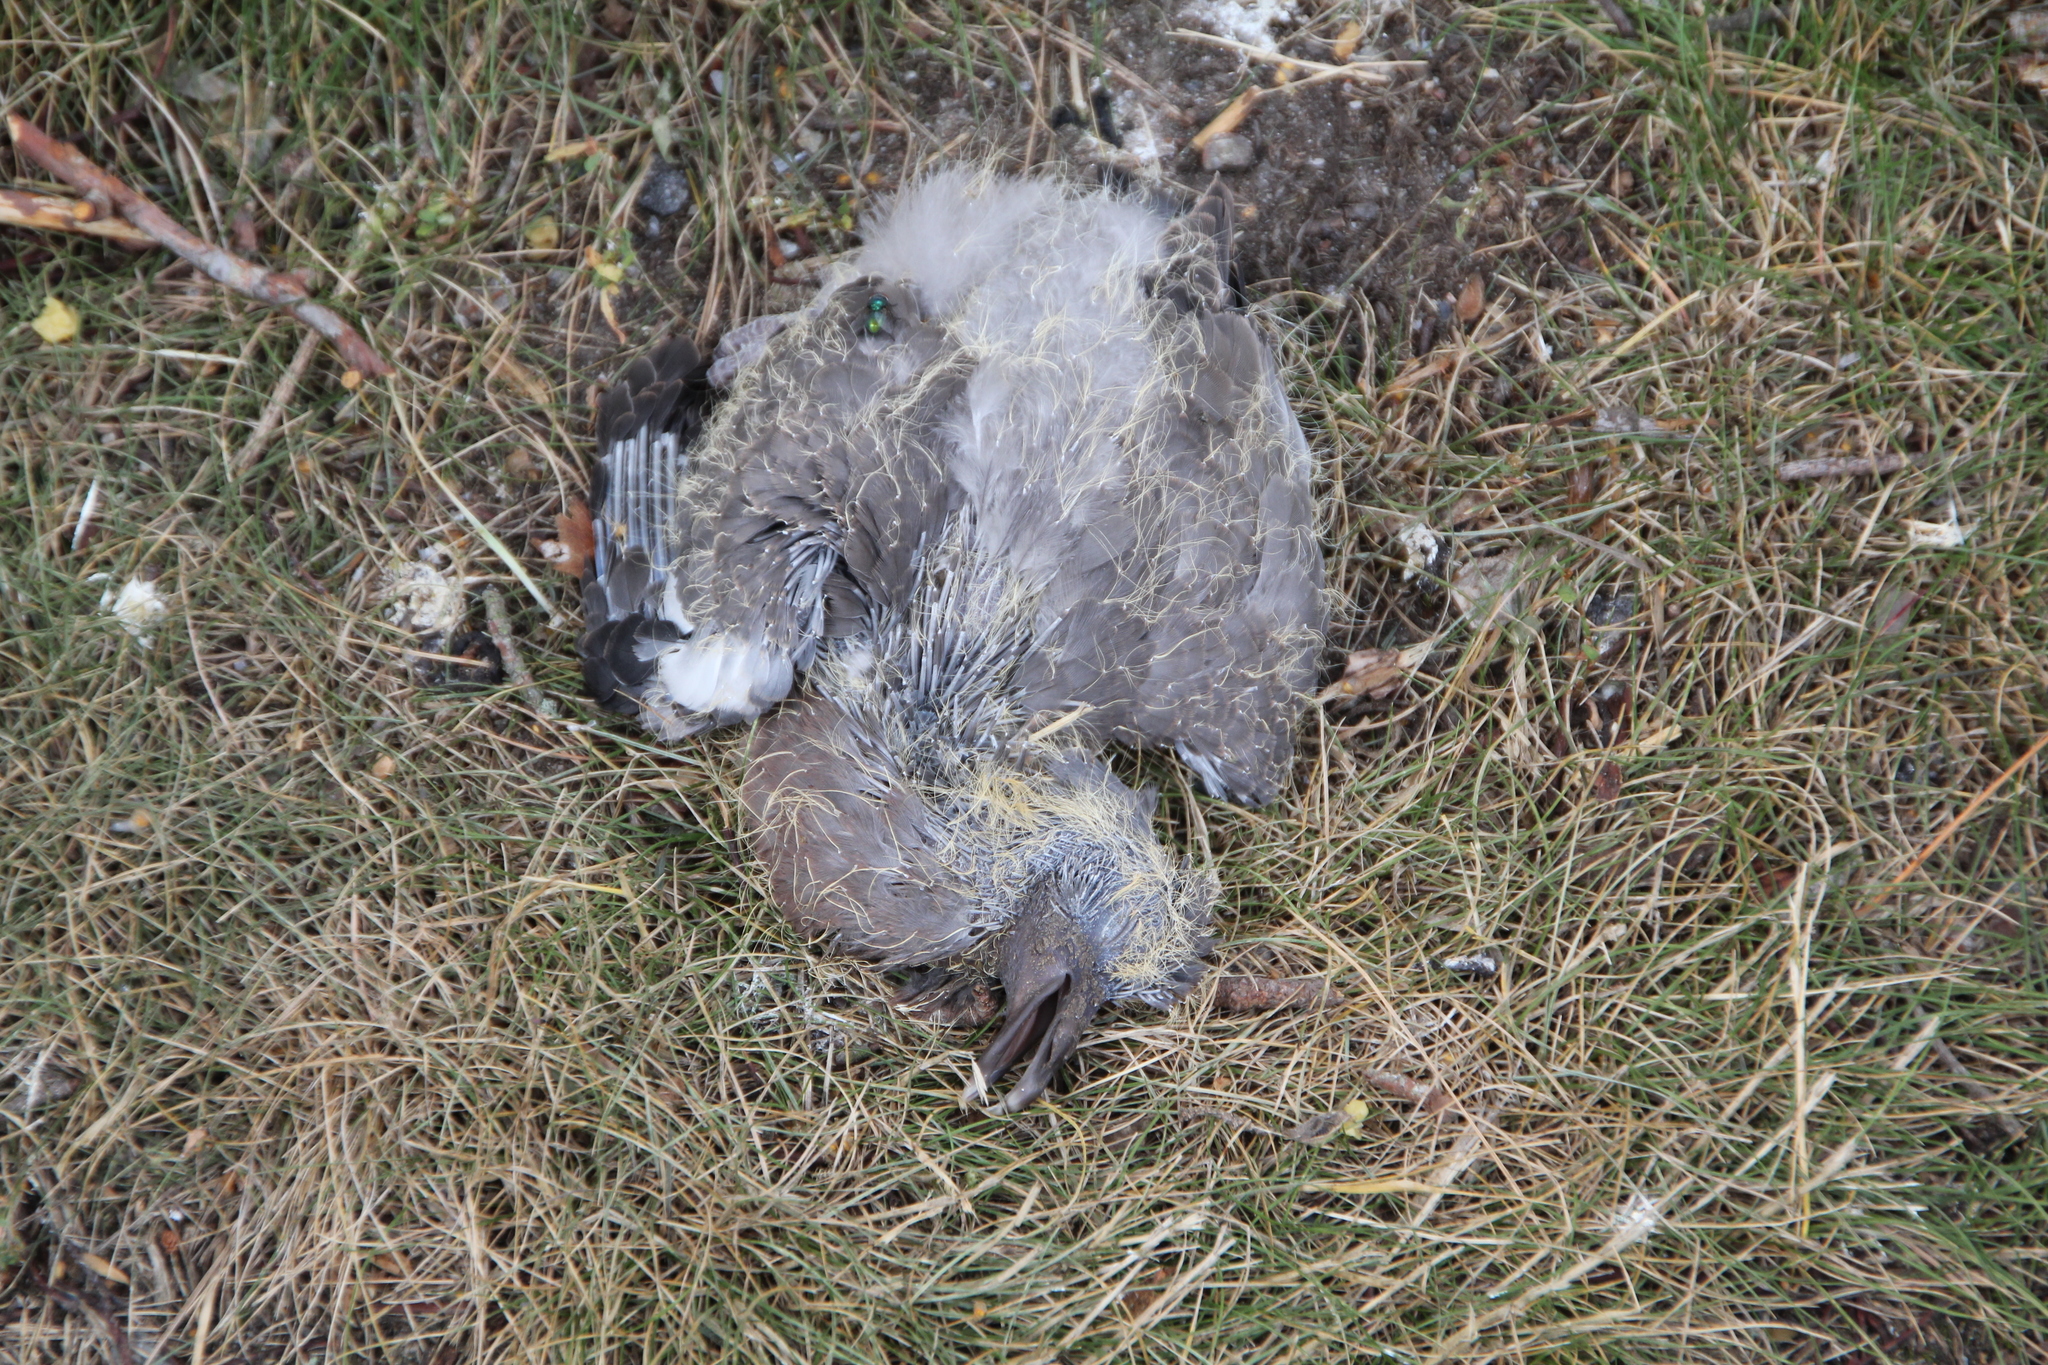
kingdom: Animalia
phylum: Chordata
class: Aves
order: Columbiformes
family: Columbidae
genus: Columba
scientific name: Columba palumbus
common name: Common wood pigeon
